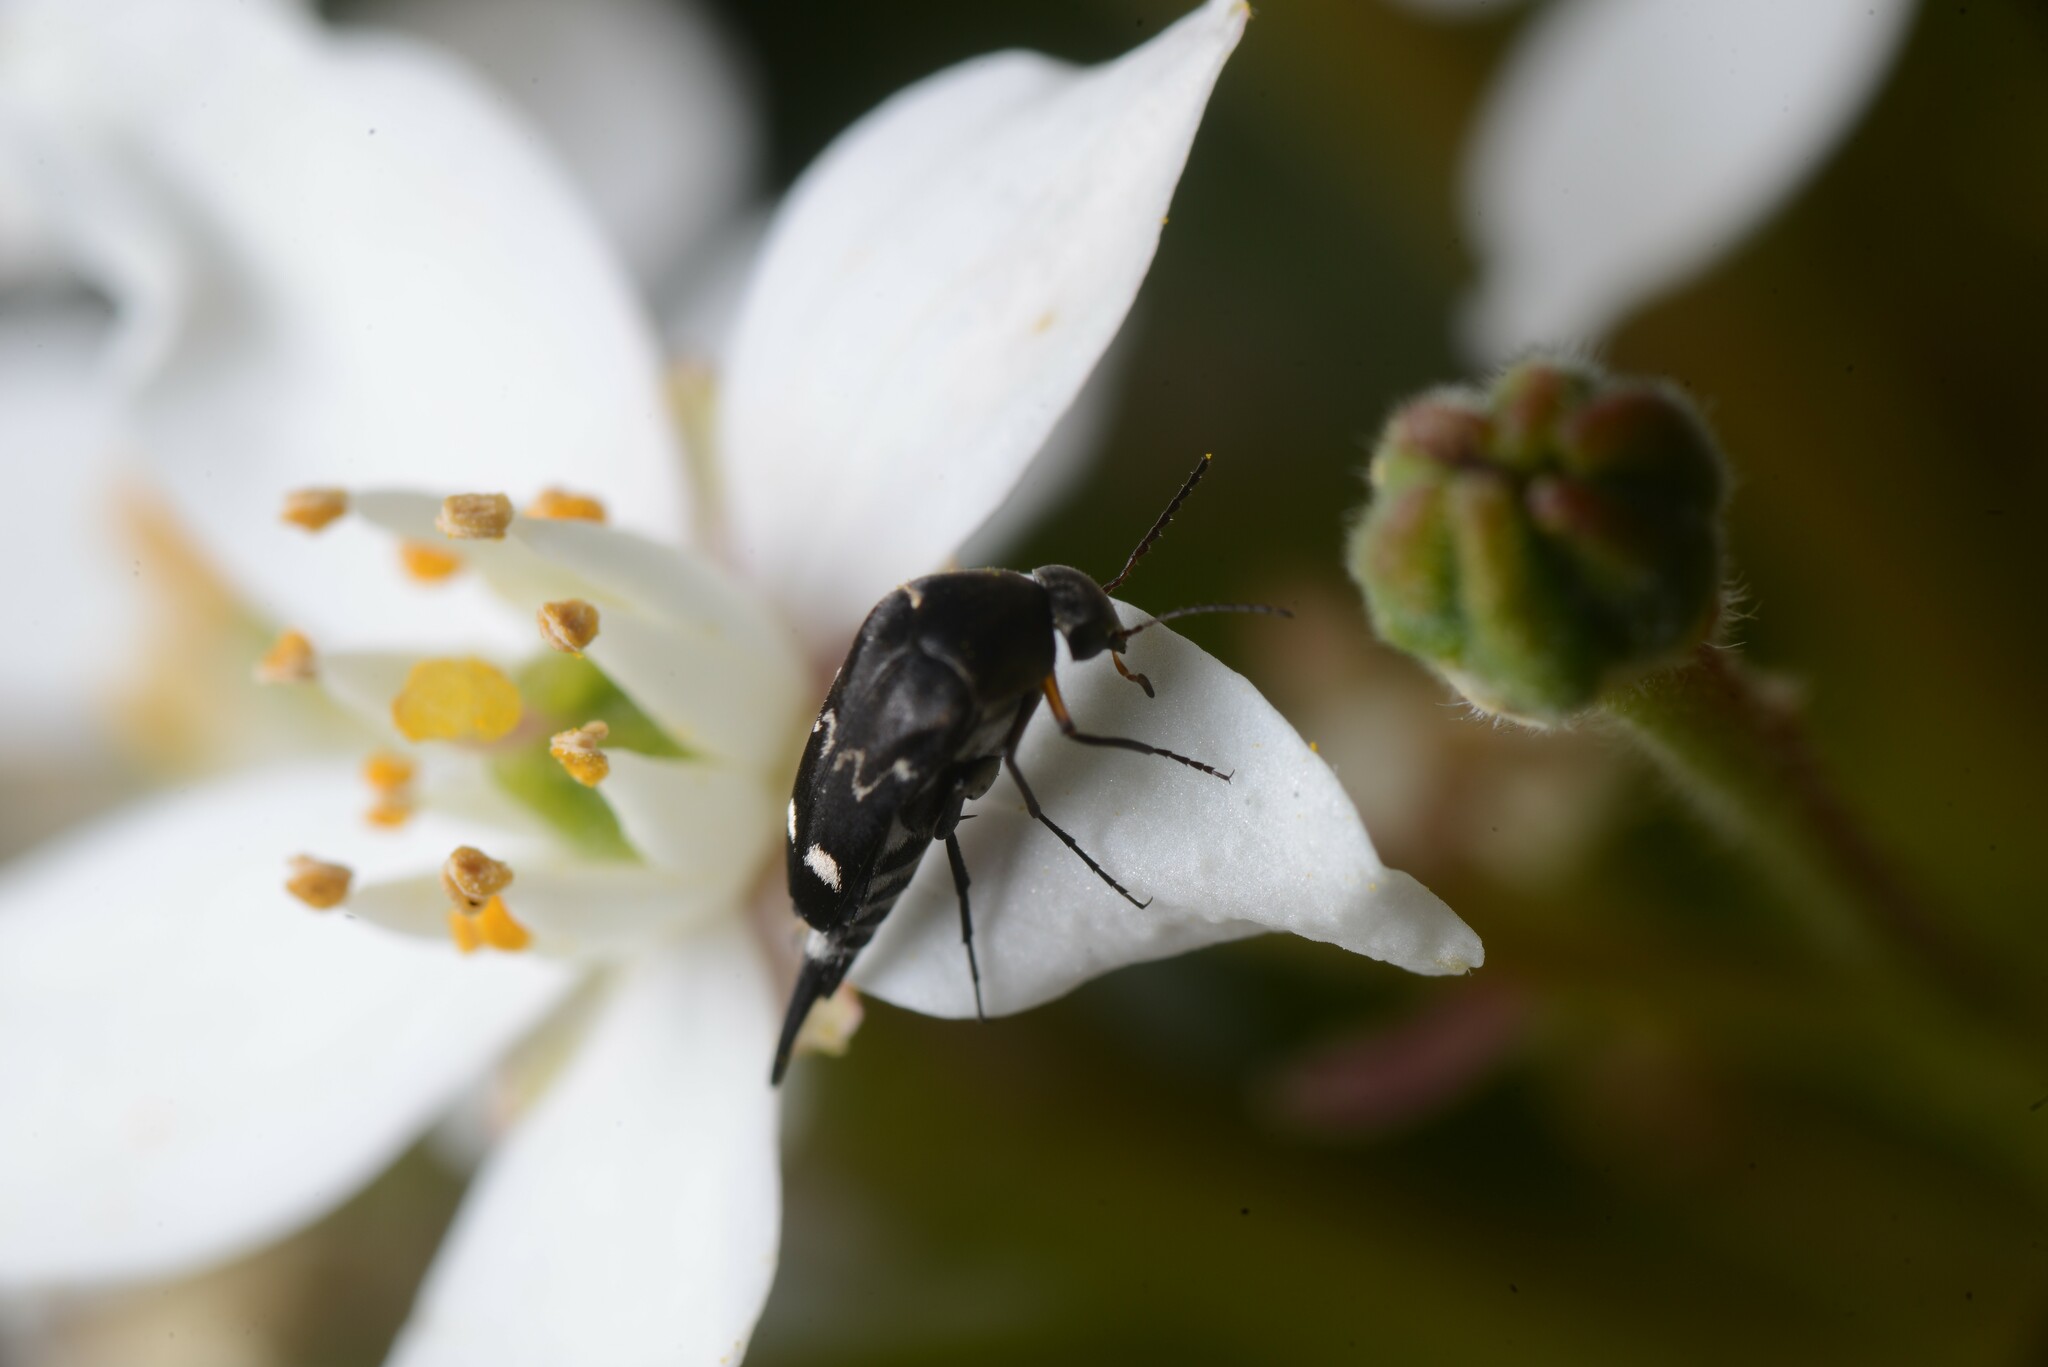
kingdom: Animalia
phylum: Arthropoda
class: Insecta
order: Coleoptera
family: Mordellidae
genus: Mordella
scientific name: Mordella
